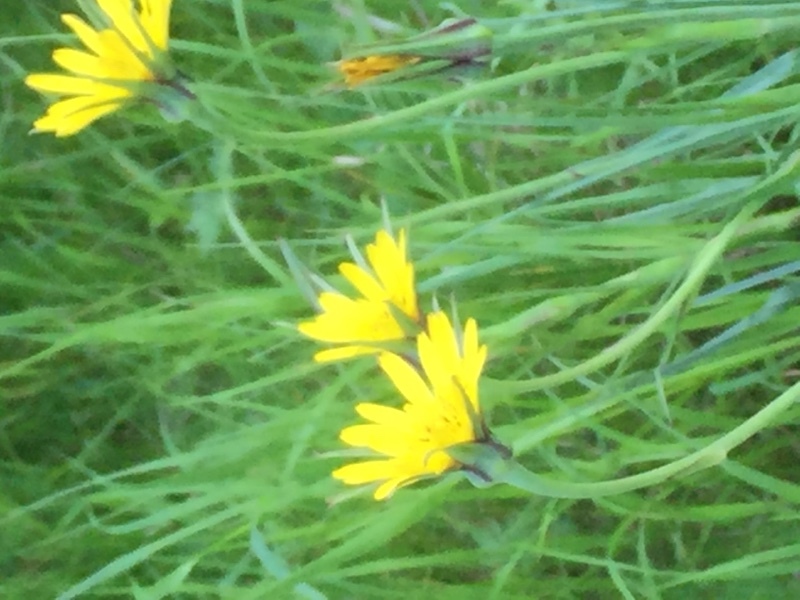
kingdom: Plantae
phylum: Tracheophyta
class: Magnoliopsida
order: Asterales
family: Asteraceae
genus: Tragopogon
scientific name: Tragopogon pratensis
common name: Goat's-beard
